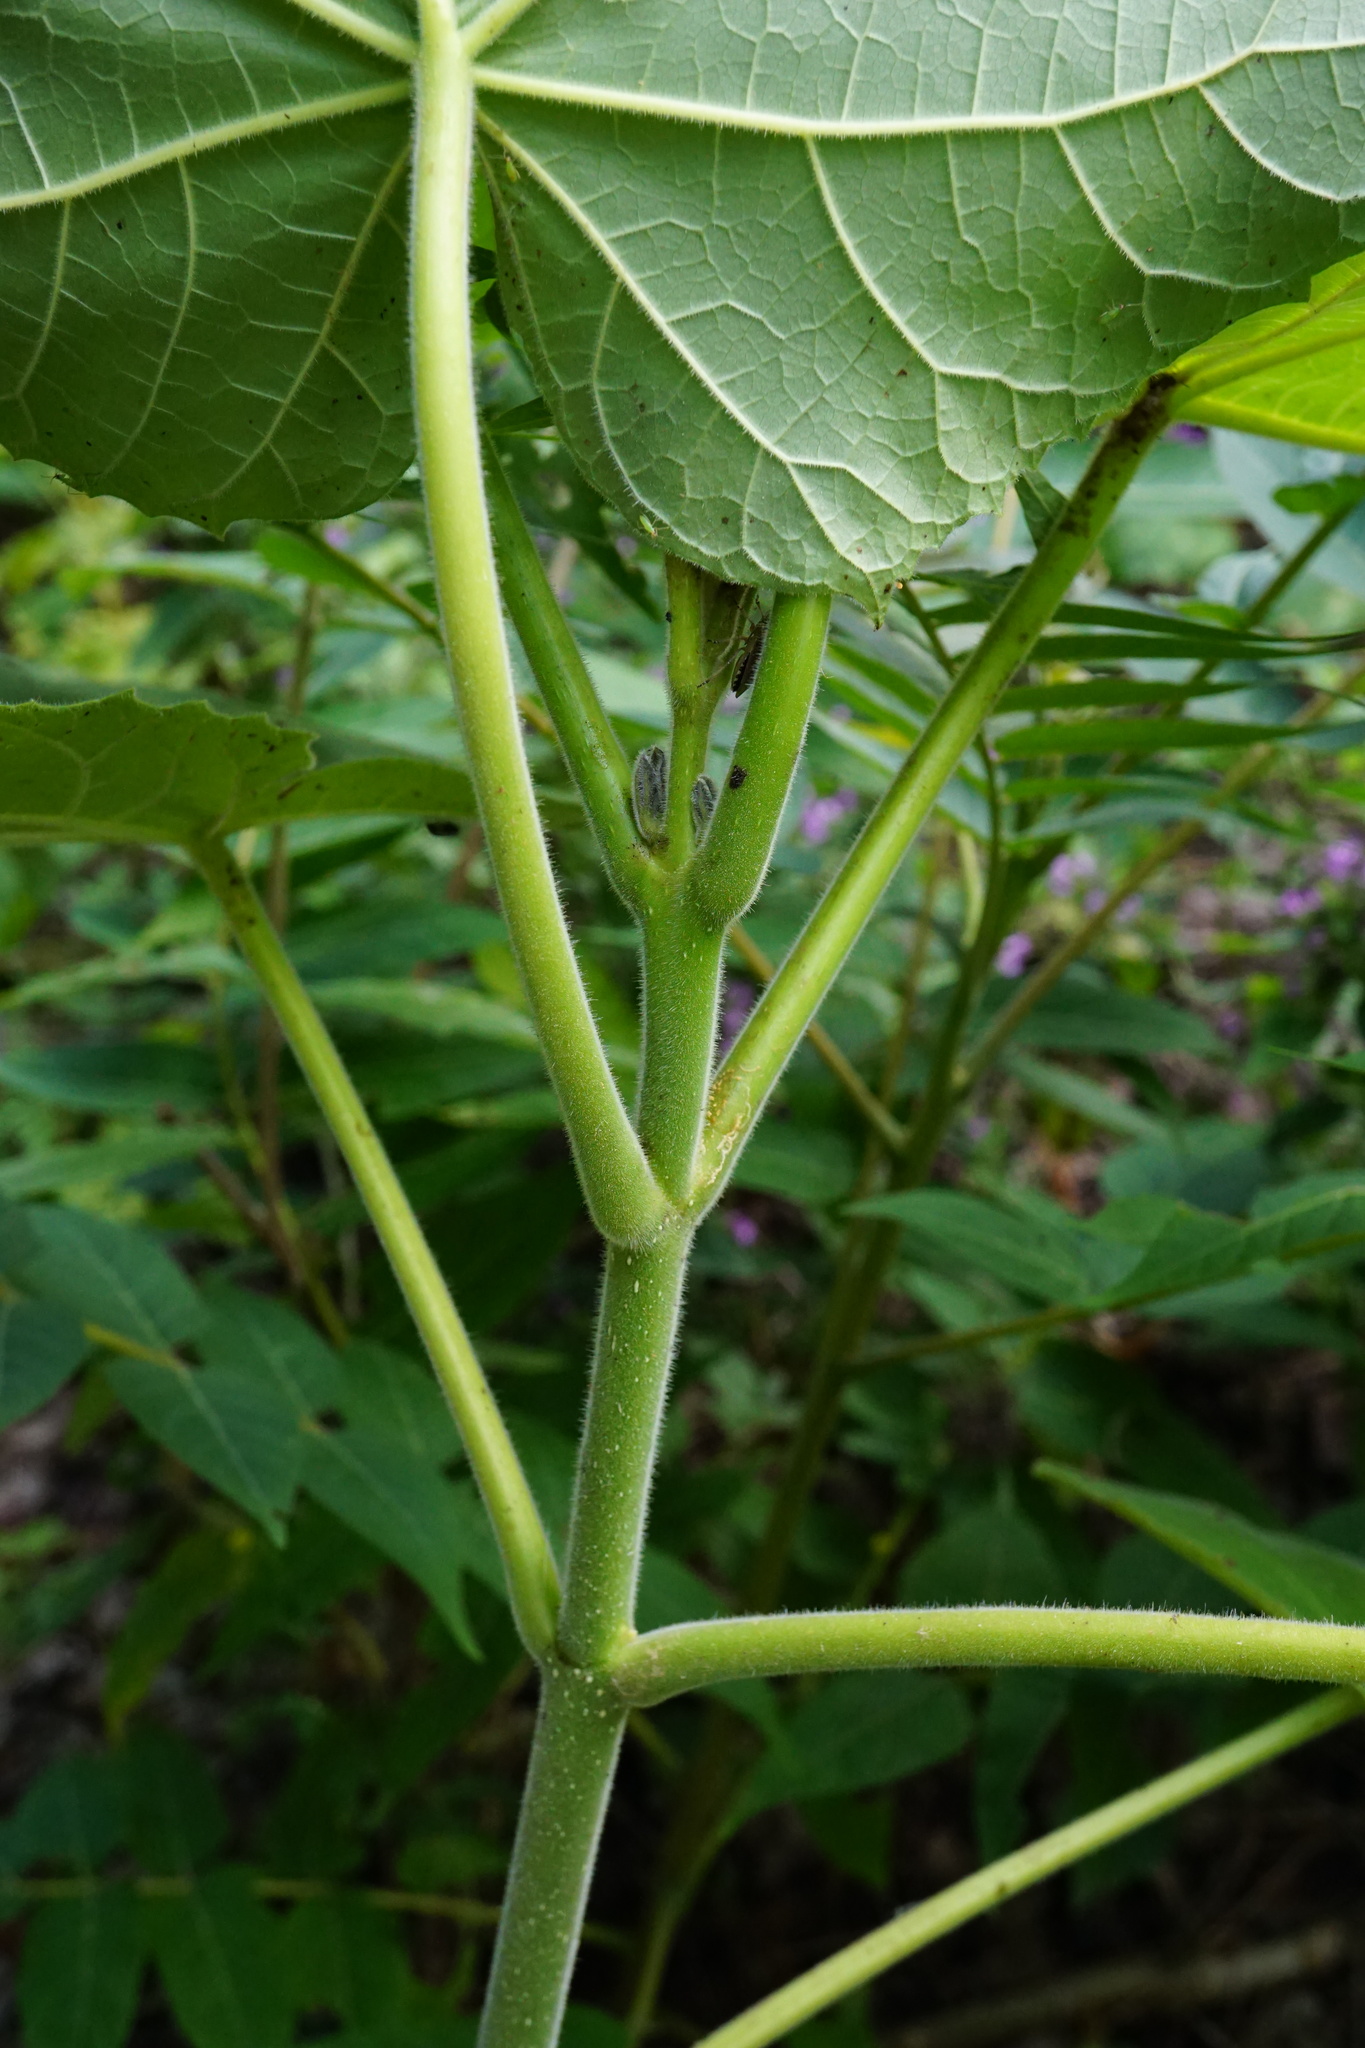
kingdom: Plantae
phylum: Tracheophyta
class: Magnoliopsida
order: Lamiales
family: Paulowniaceae
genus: Paulownia
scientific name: Paulownia tomentosa
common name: Foxglove-tree
